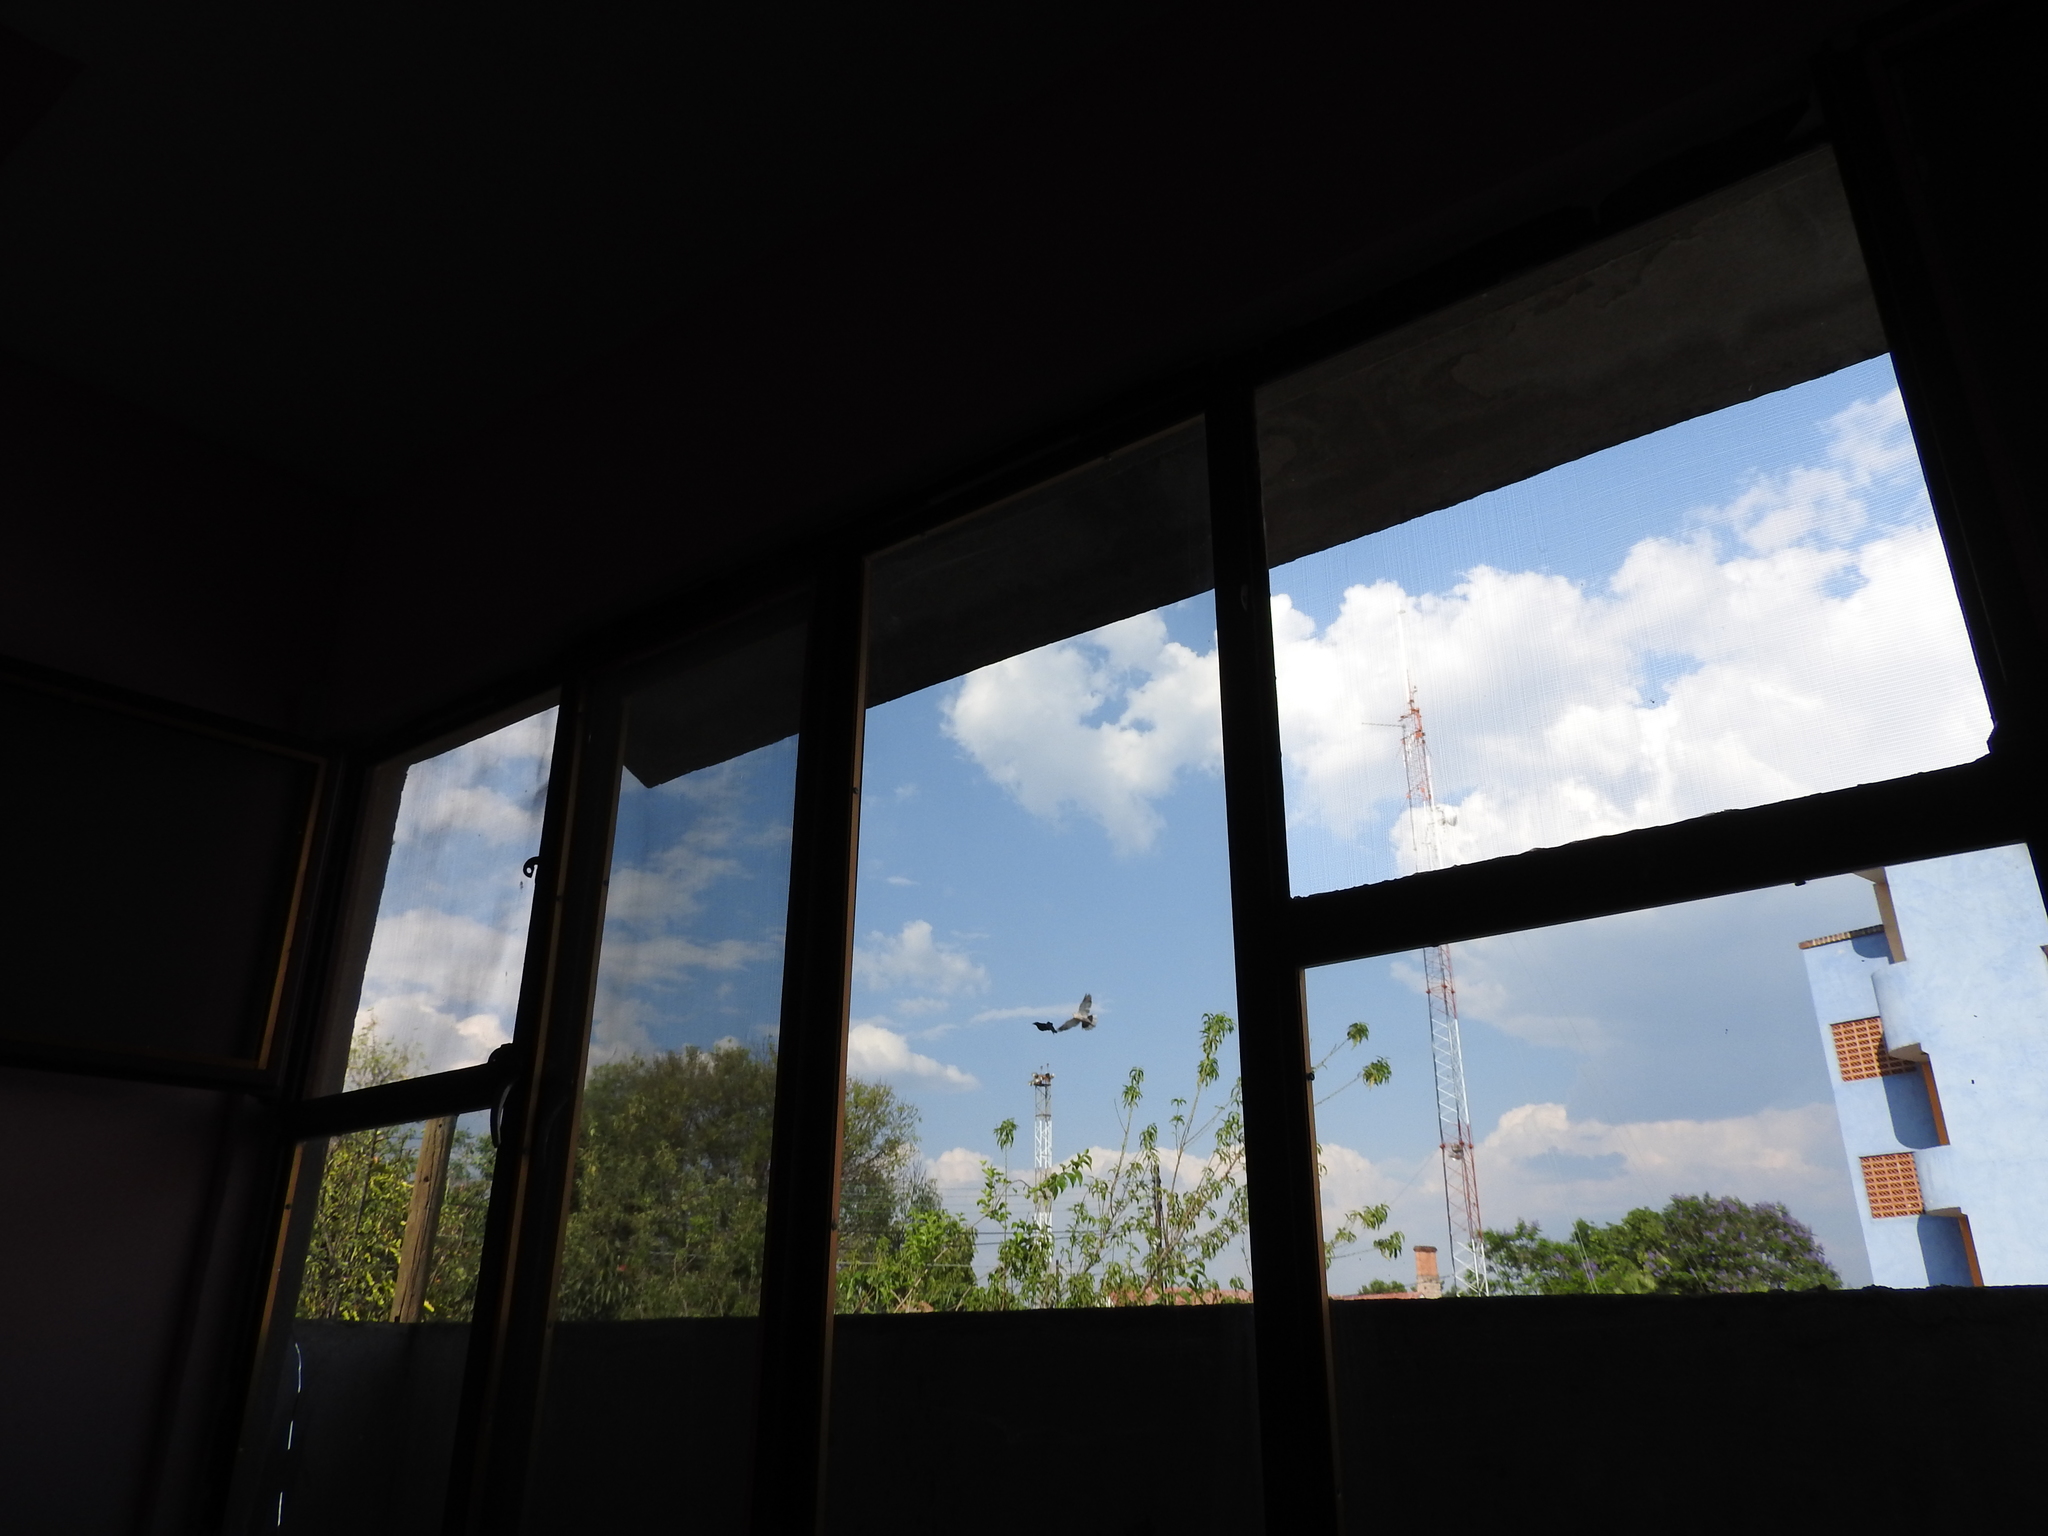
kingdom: Animalia
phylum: Chordata
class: Aves
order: Passeriformes
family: Icteridae
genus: Quiscalus
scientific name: Quiscalus mexicanus
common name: Great-tailed grackle
